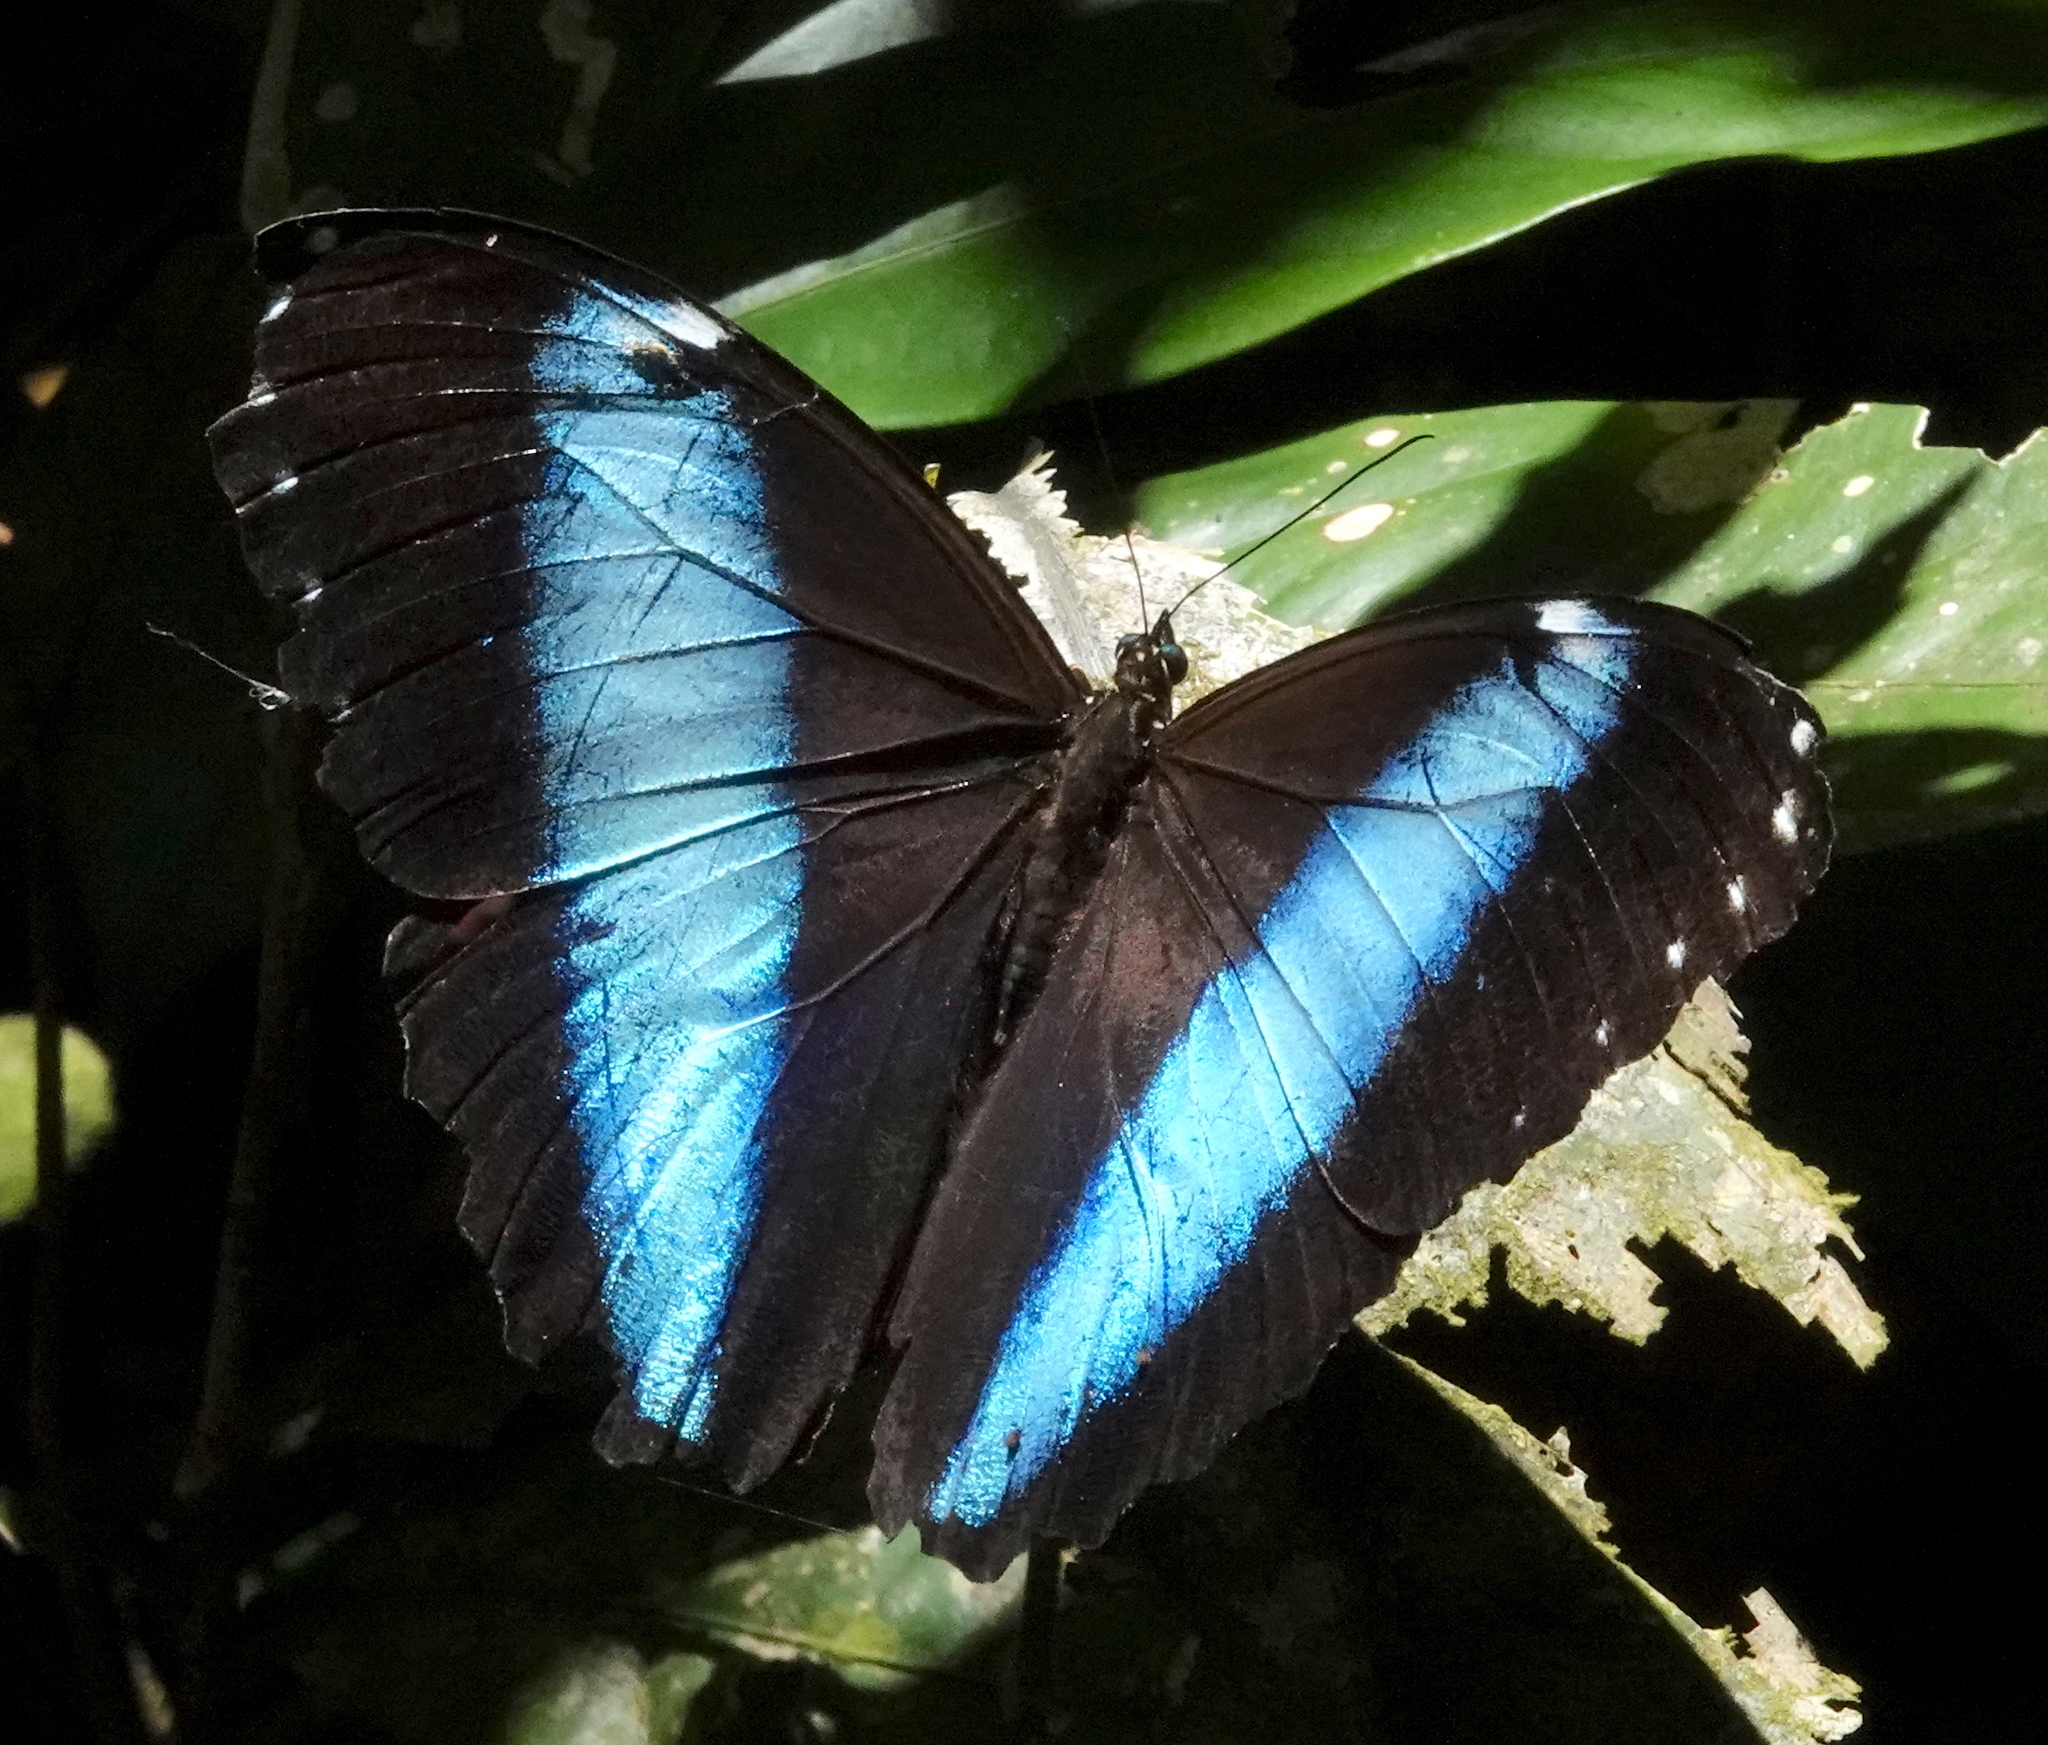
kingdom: Animalia
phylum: Arthropoda
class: Insecta
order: Lepidoptera
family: Nymphalidae
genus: Morpho
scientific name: Morpho helenor
